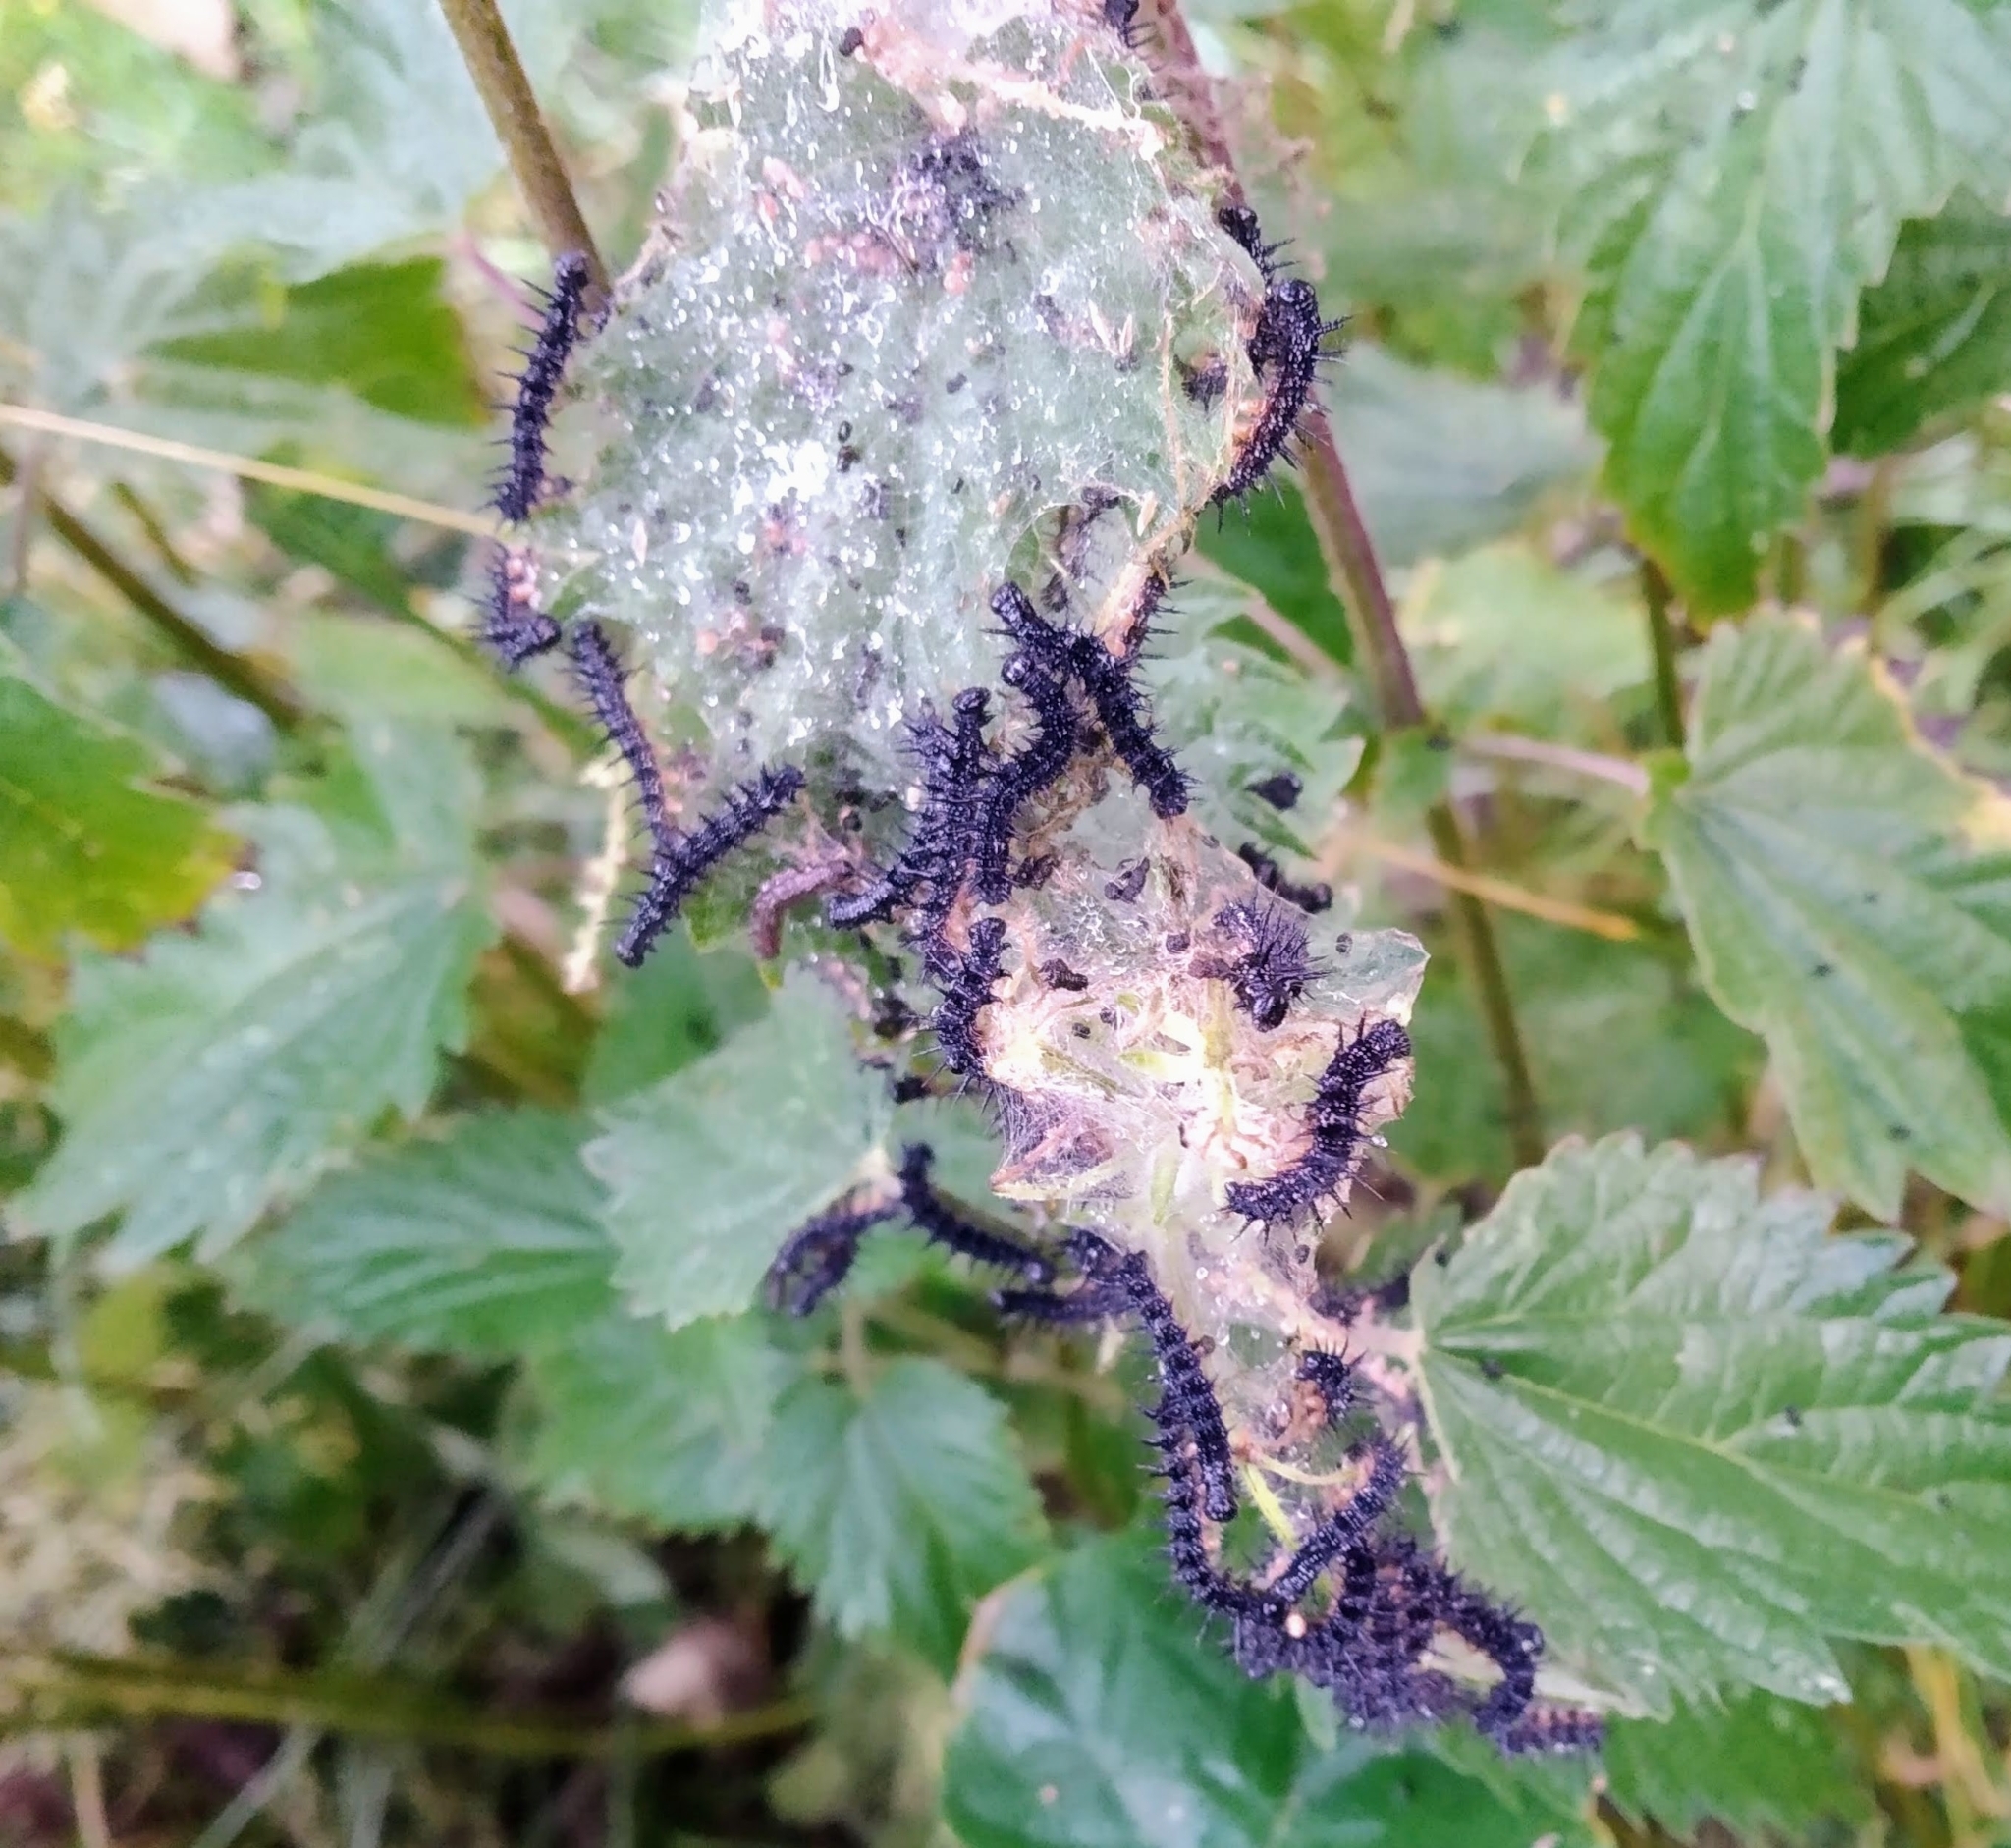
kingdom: Animalia
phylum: Arthropoda
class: Insecta
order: Lepidoptera
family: Nymphalidae
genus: Aglais
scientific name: Aglais io
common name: Peacock
